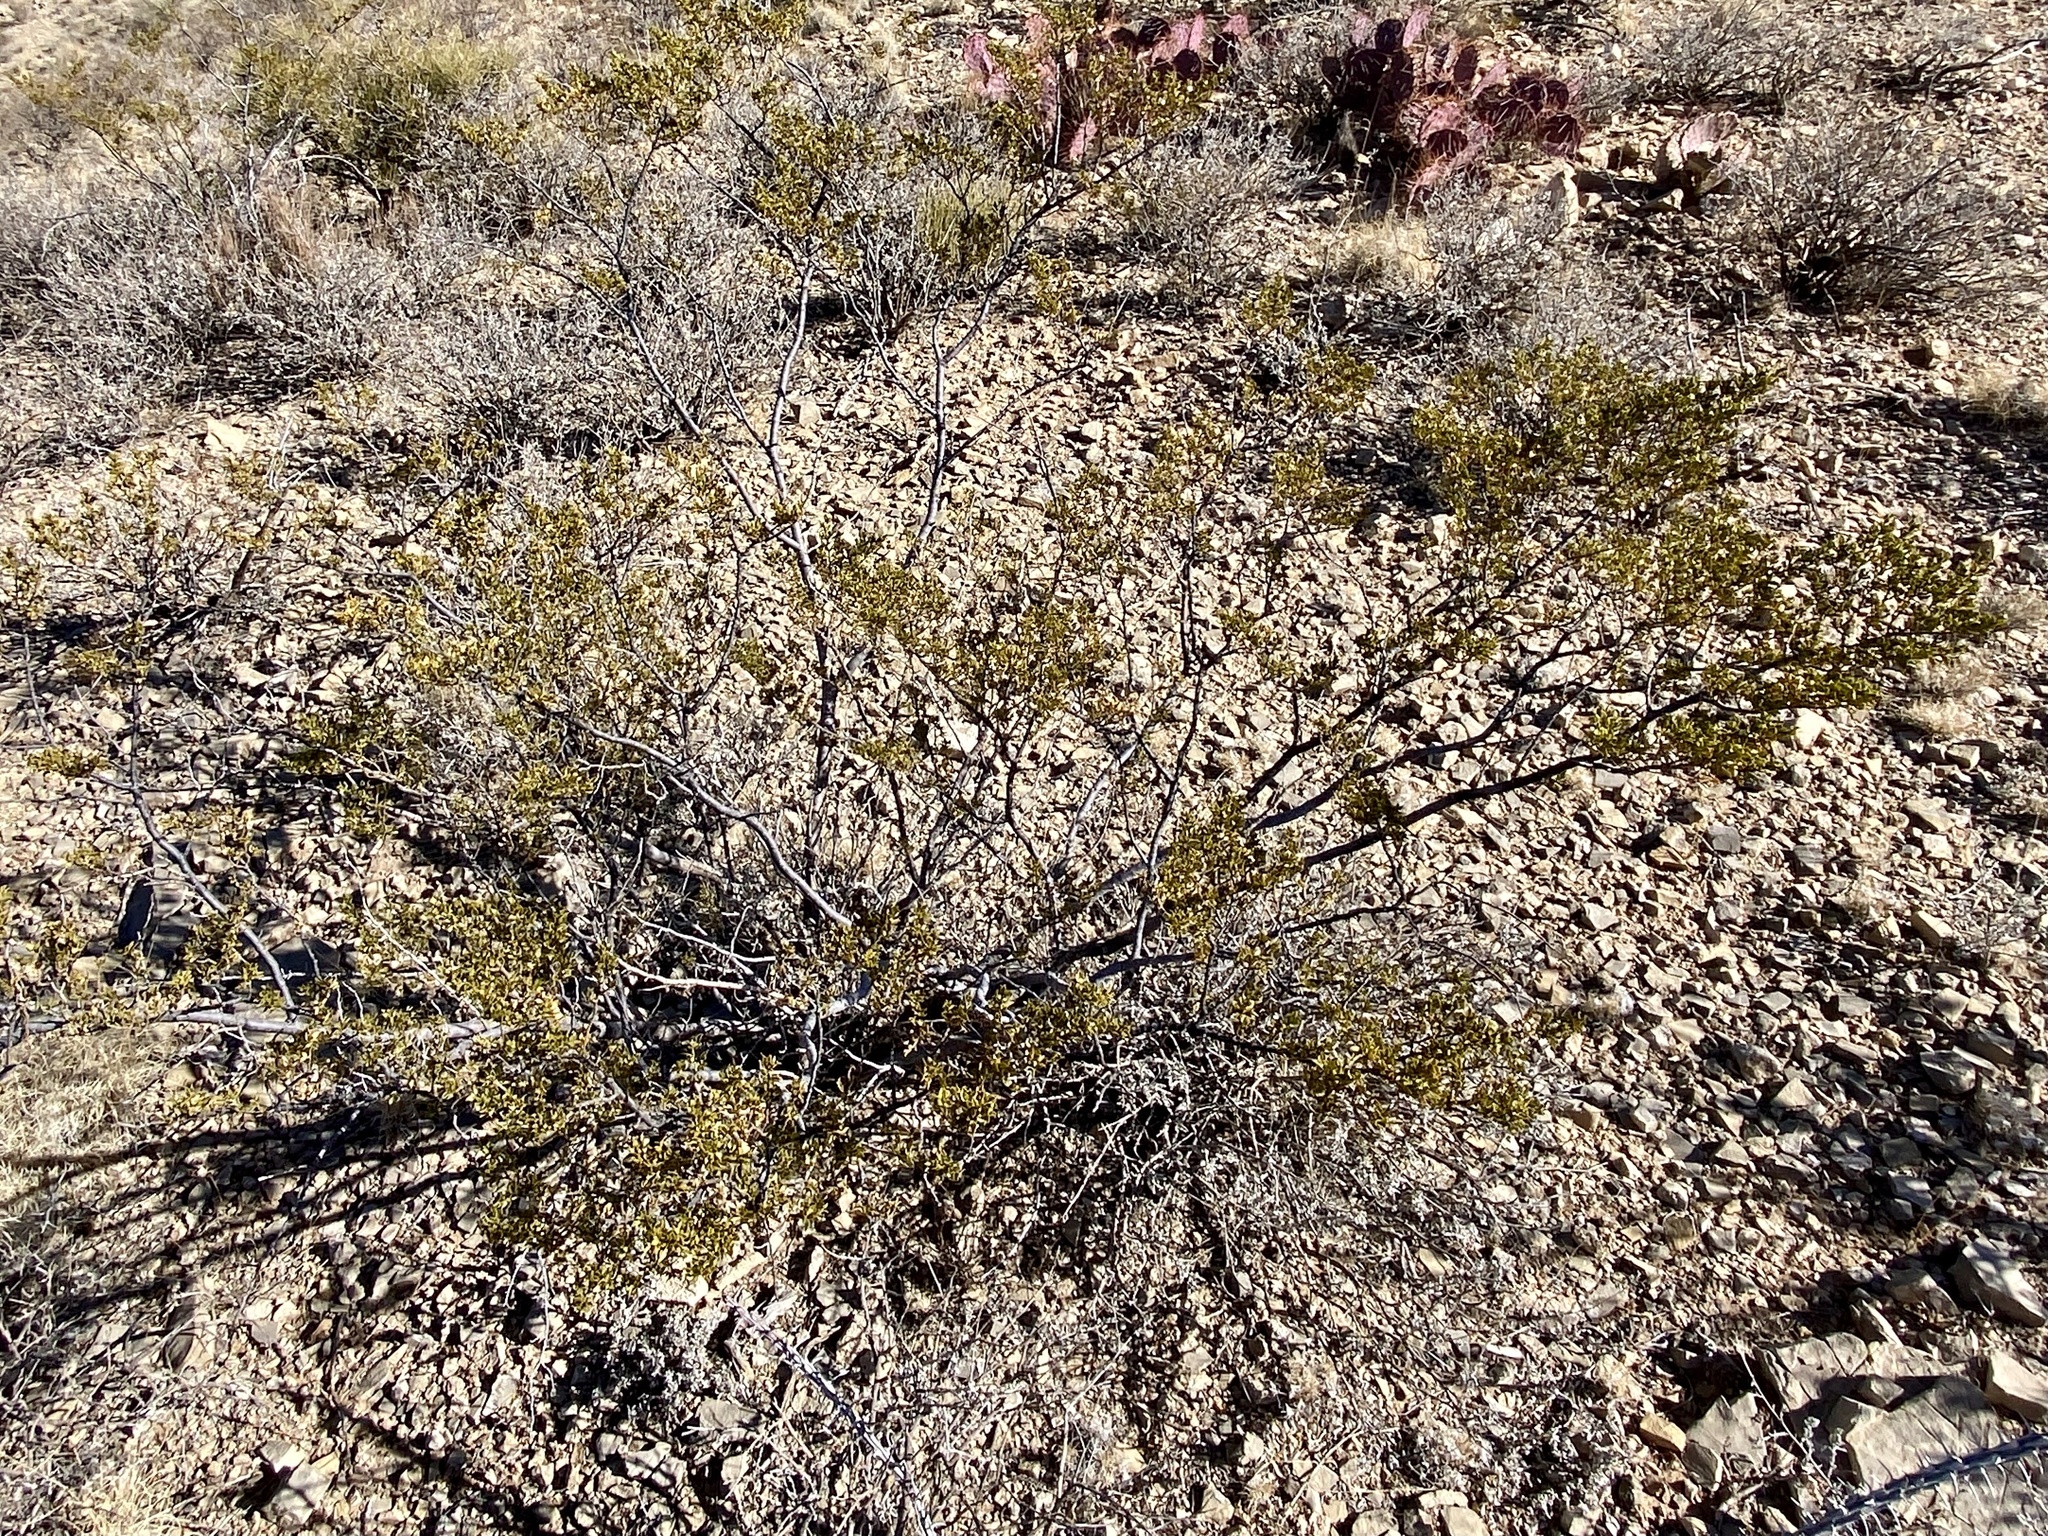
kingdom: Plantae
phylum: Tracheophyta
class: Magnoliopsida
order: Zygophyllales
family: Zygophyllaceae
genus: Larrea
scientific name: Larrea tridentata
